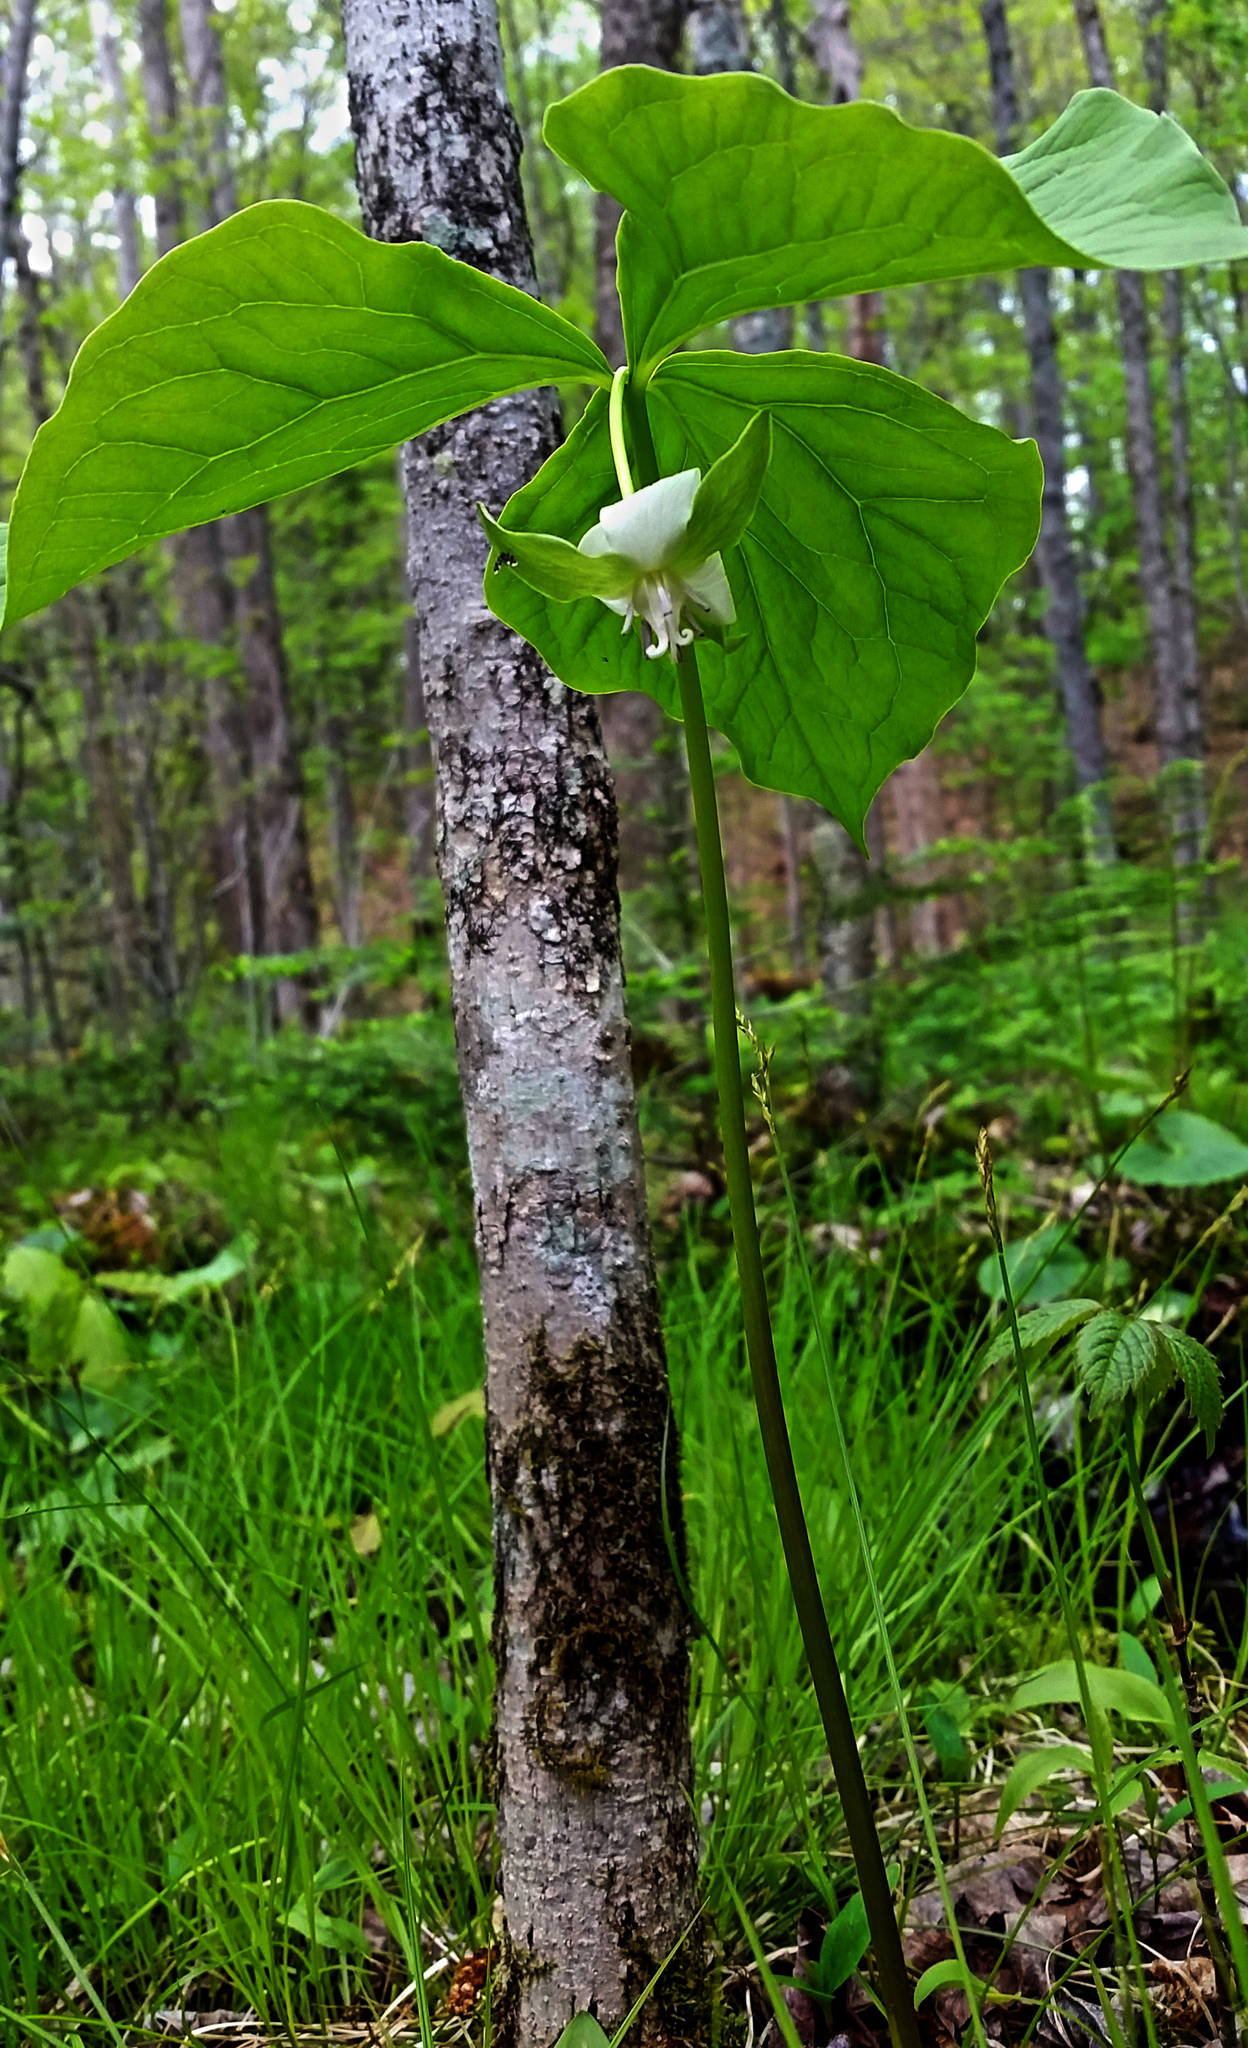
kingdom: Plantae
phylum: Tracheophyta
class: Liliopsida
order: Liliales
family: Melanthiaceae
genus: Trillium
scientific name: Trillium cernuum
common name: Nodding trillium
